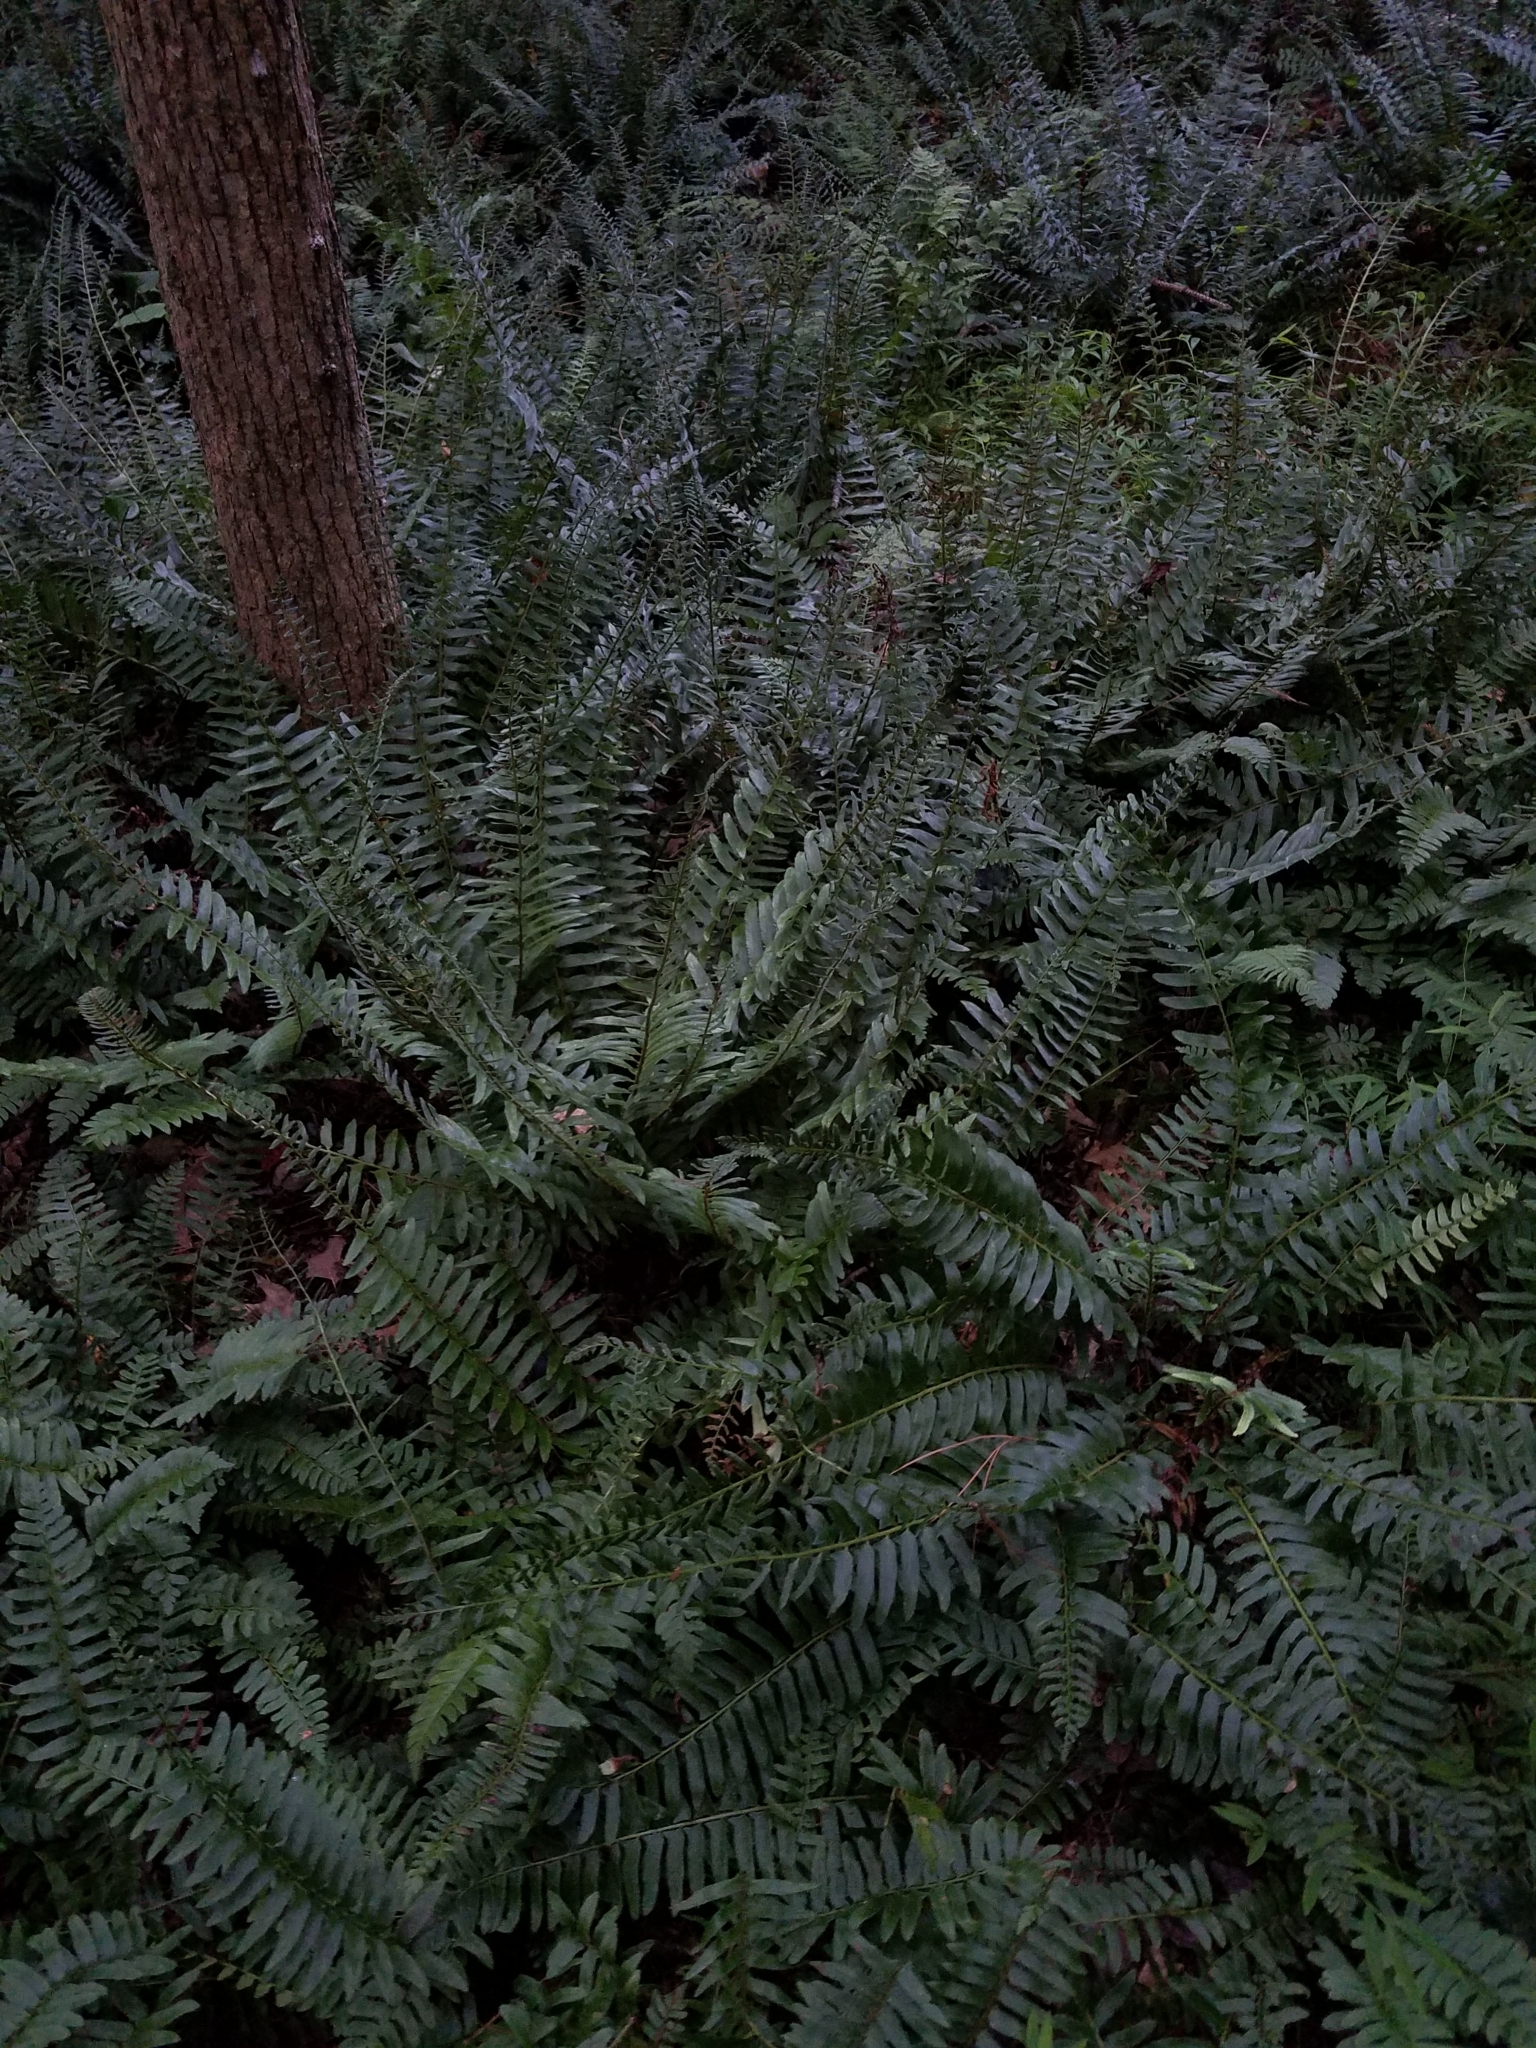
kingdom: Plantae
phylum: Tracheophyta
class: Polypodiopsida
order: Polypodiales
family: Dryopteridaceae
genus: Polystichum
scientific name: Polystichum acrostichoides
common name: Christmas fern
